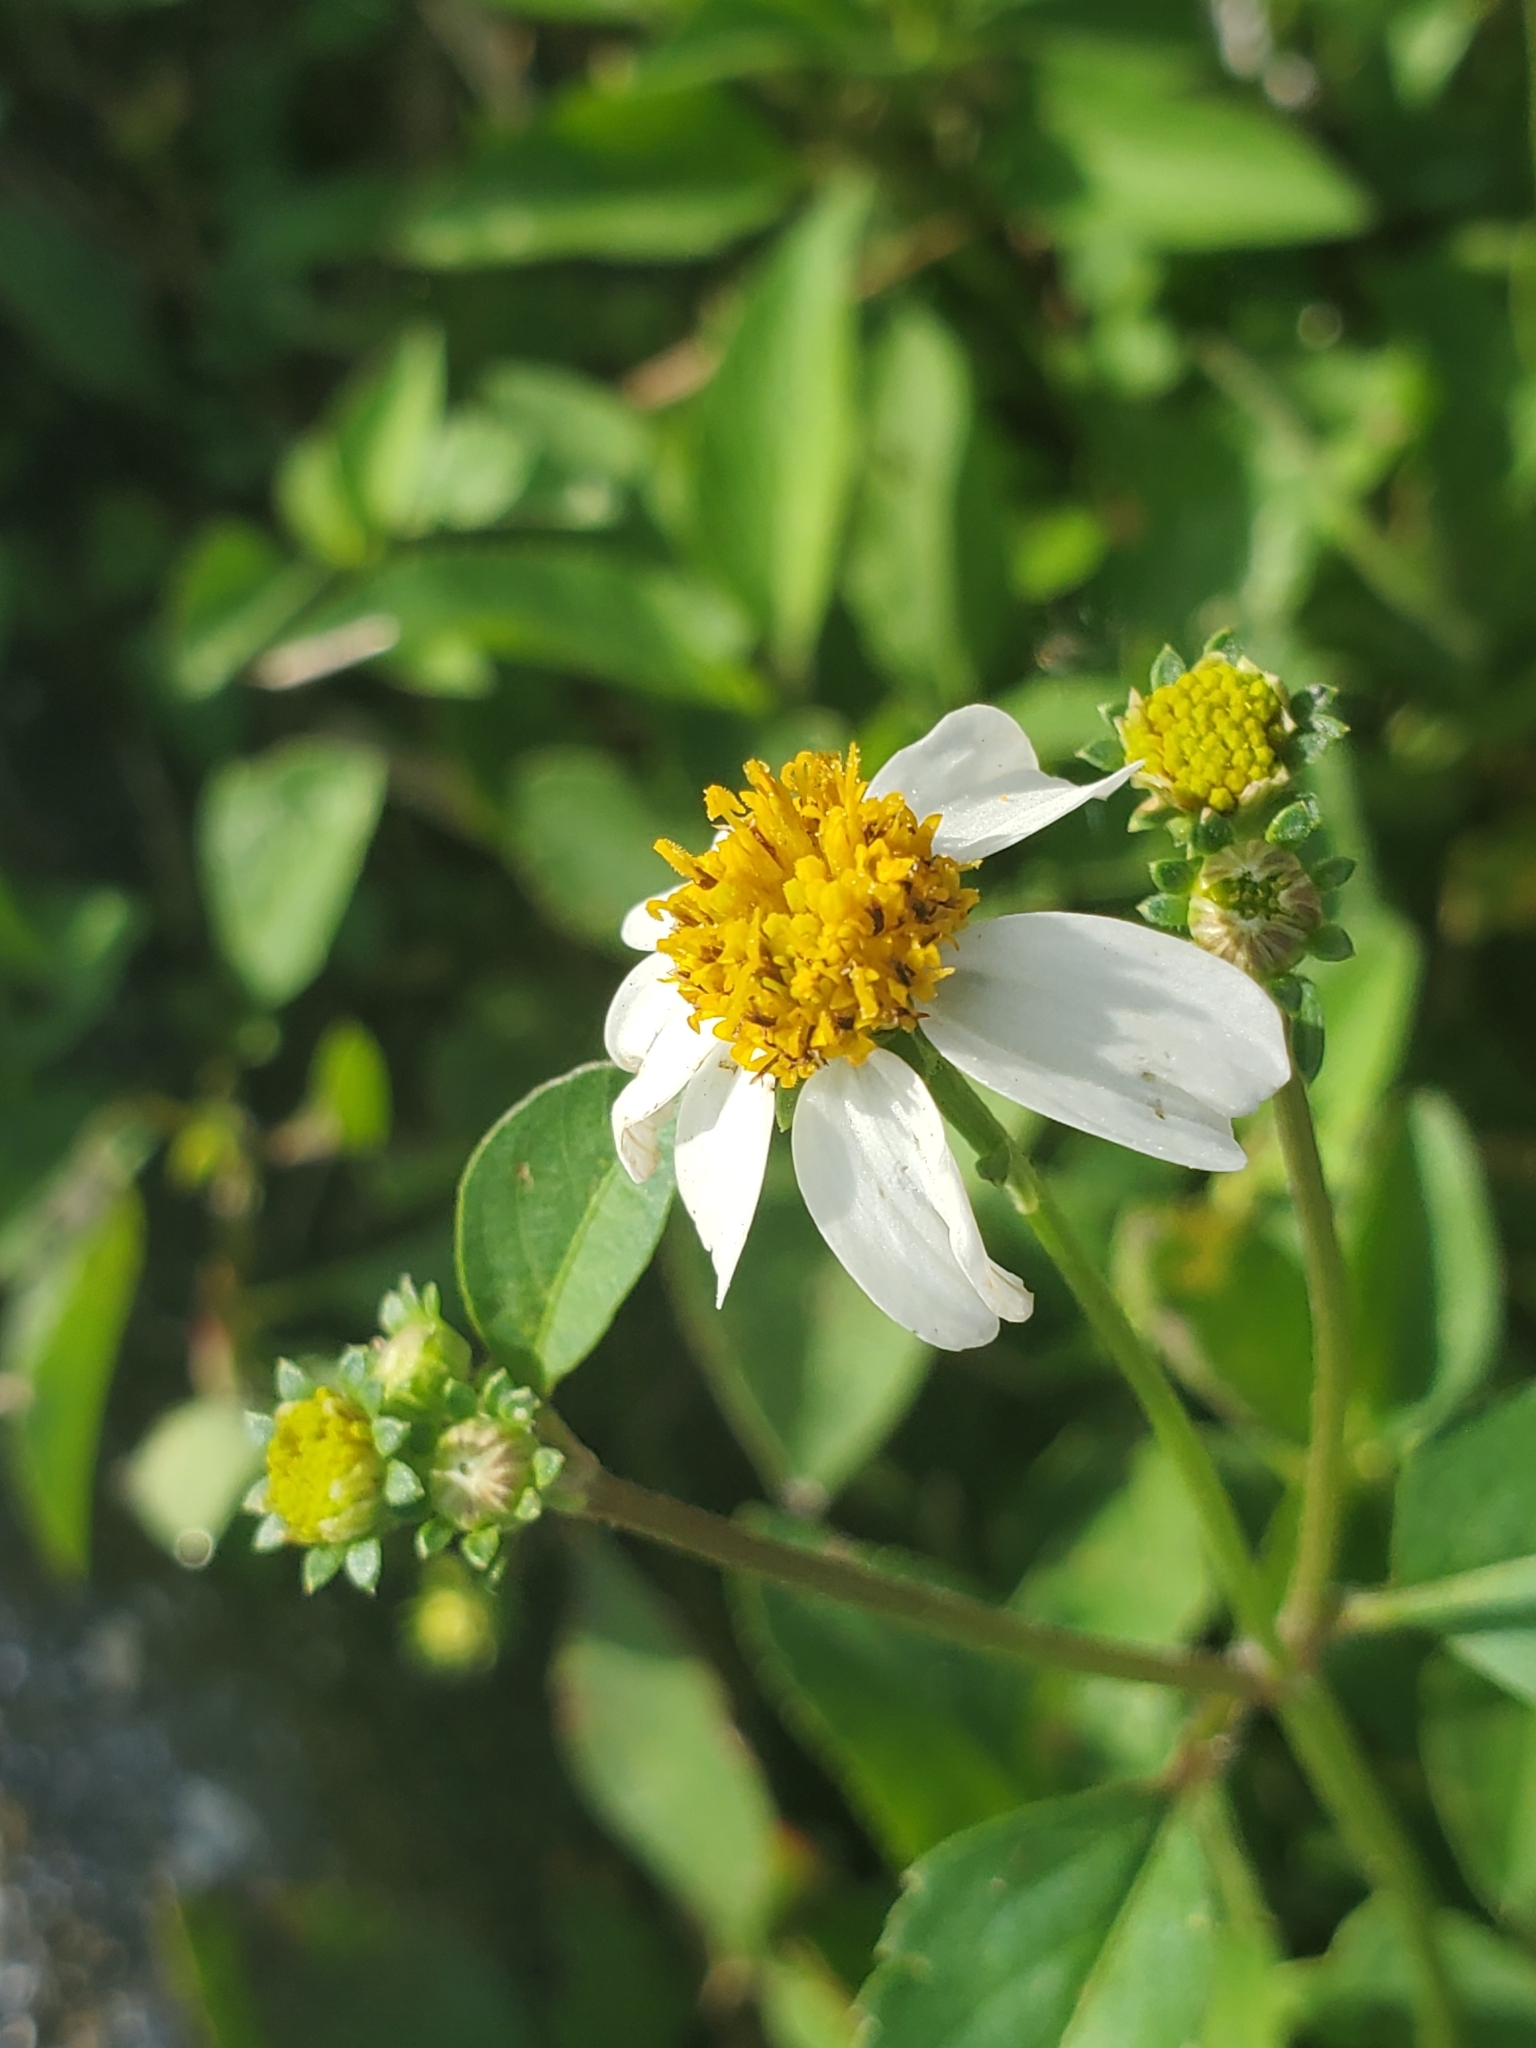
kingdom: Plantae
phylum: Tracheophyta
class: Magnoliopsida
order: Asterales
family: Asteraceae
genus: Bidens
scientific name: Bidens alba
